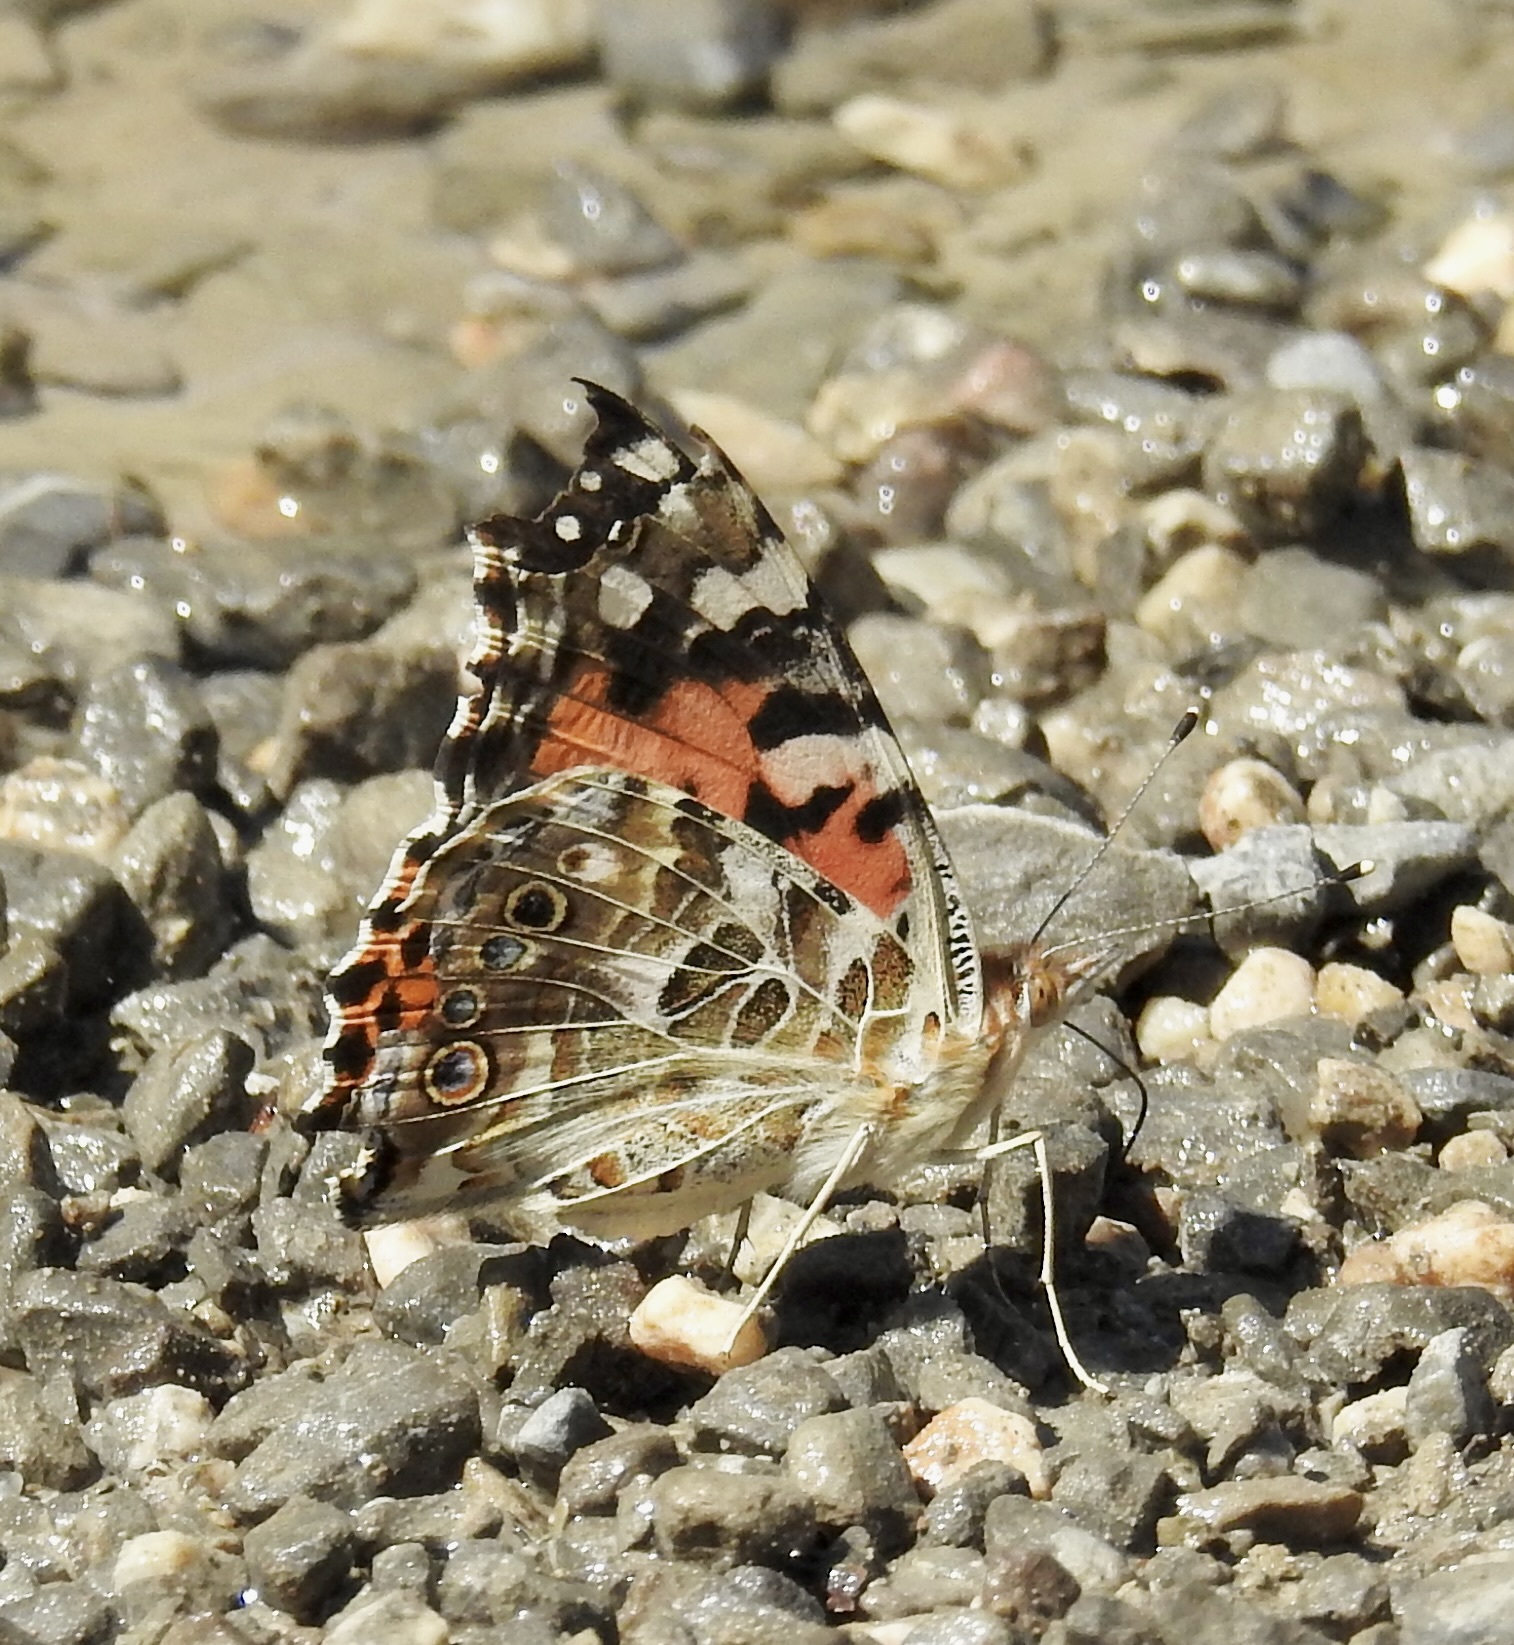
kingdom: Animalia
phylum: Arthropoda
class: Insecta
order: Lepidoptera
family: Nymphalidae
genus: Vanessa
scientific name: Vanessa cardui
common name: Painted lady
